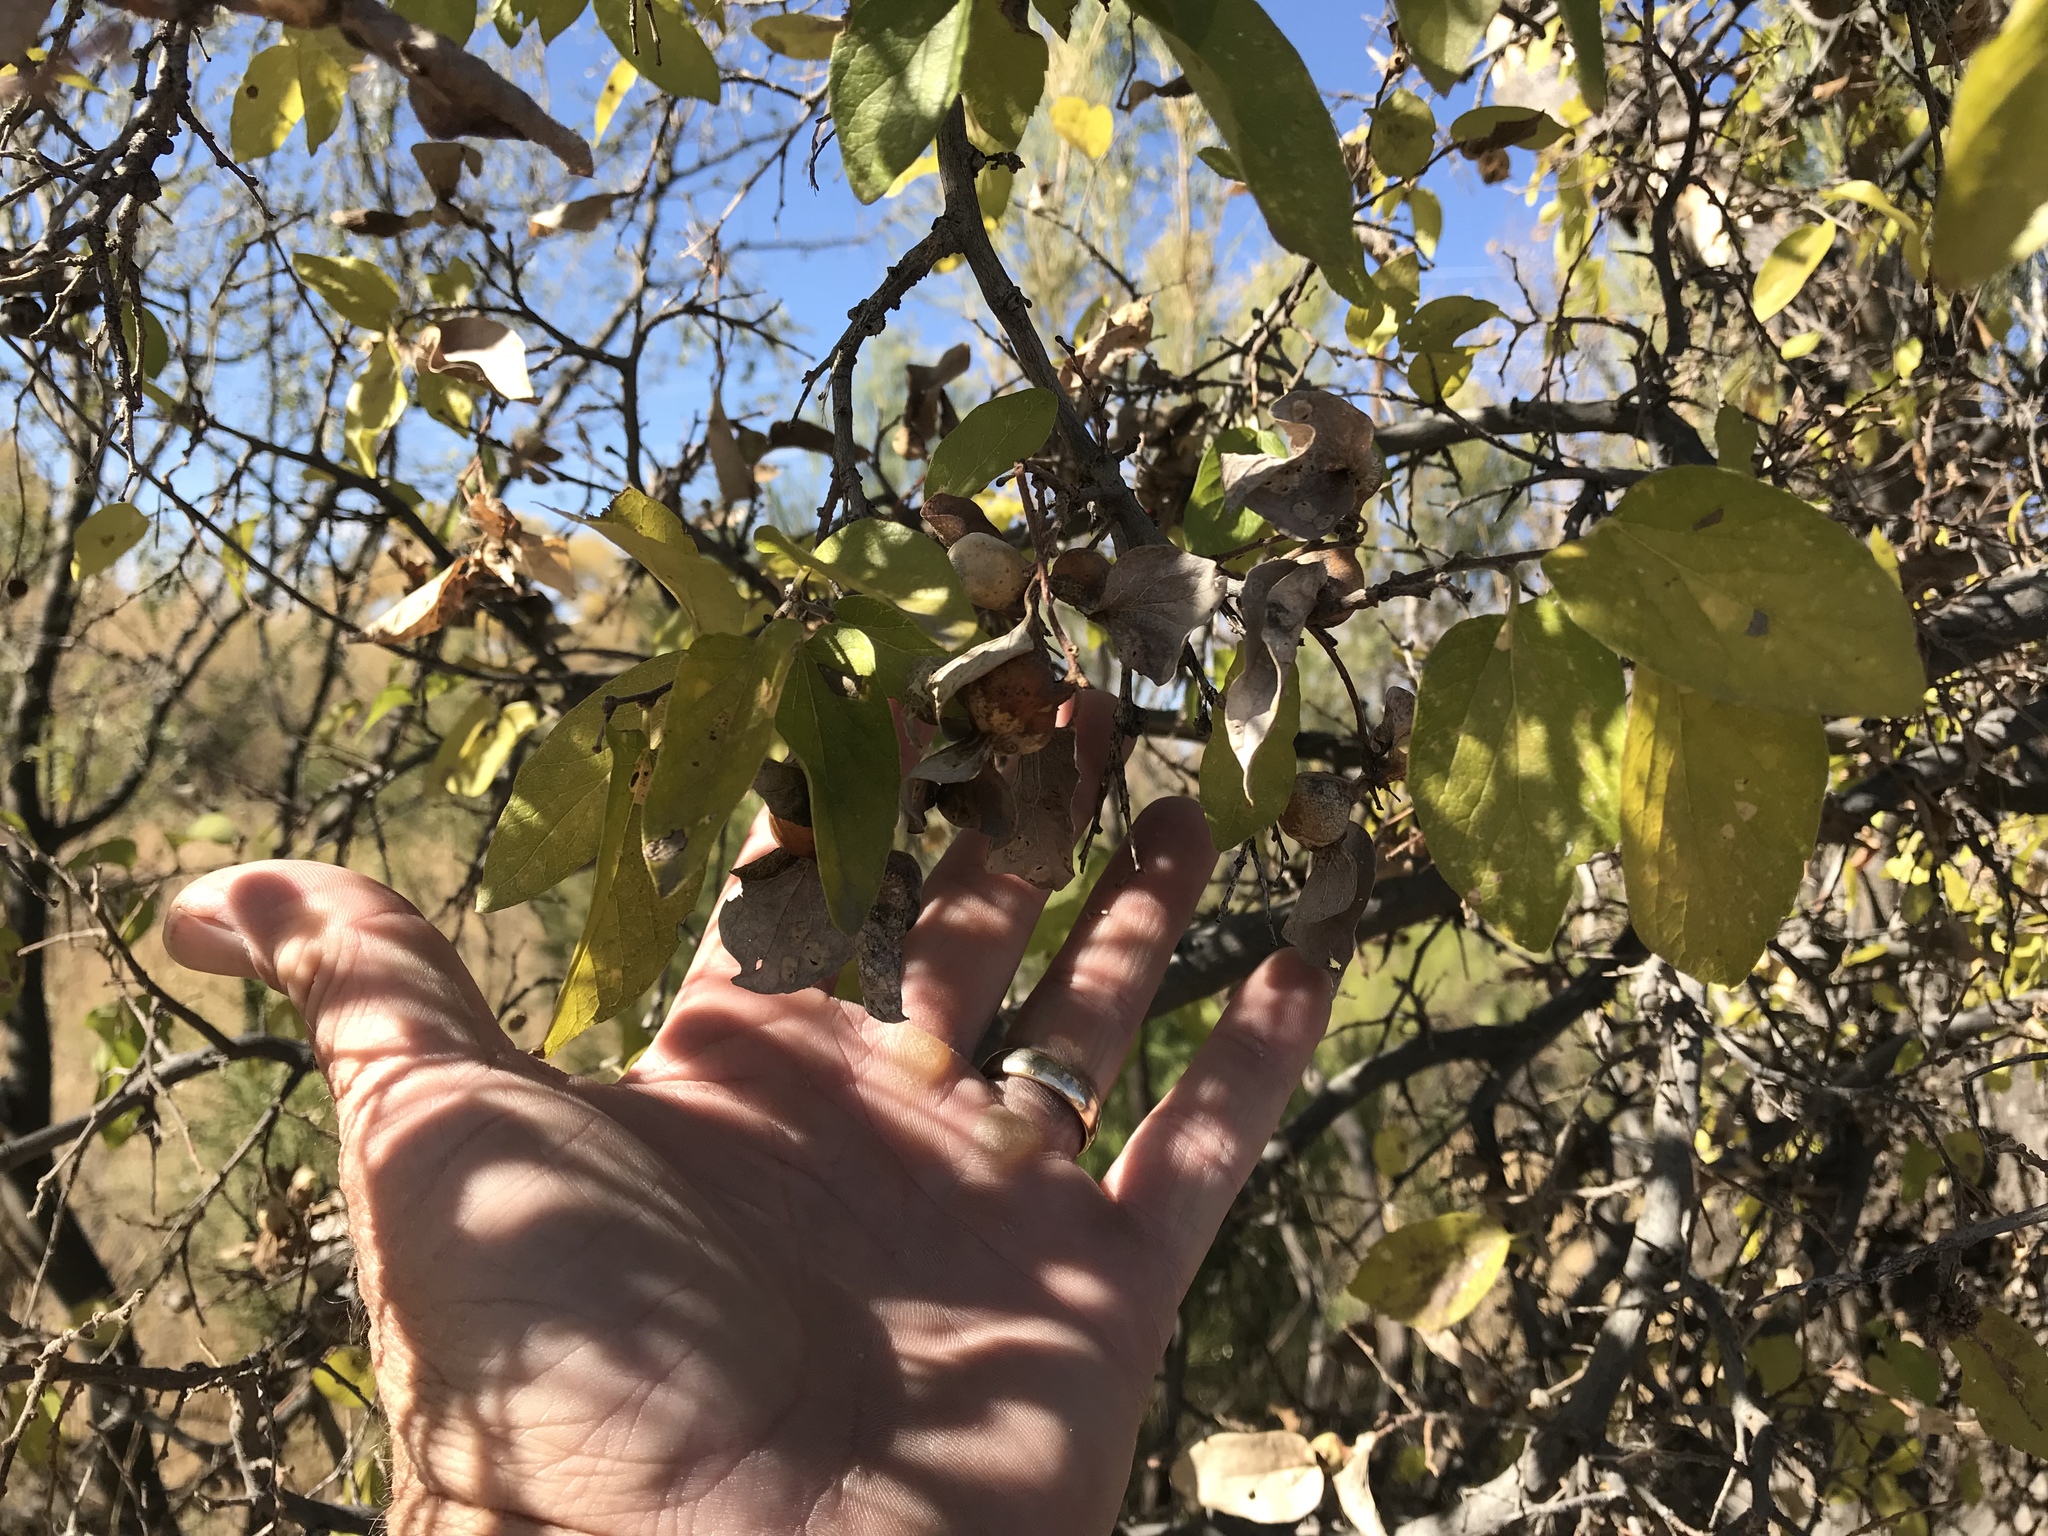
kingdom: Plantae
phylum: Tracheophyta
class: Magnoliopsida
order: Rosales
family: Cannabaceae
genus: Celtis
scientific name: Celtis reticulata
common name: Netleaf hackberry
